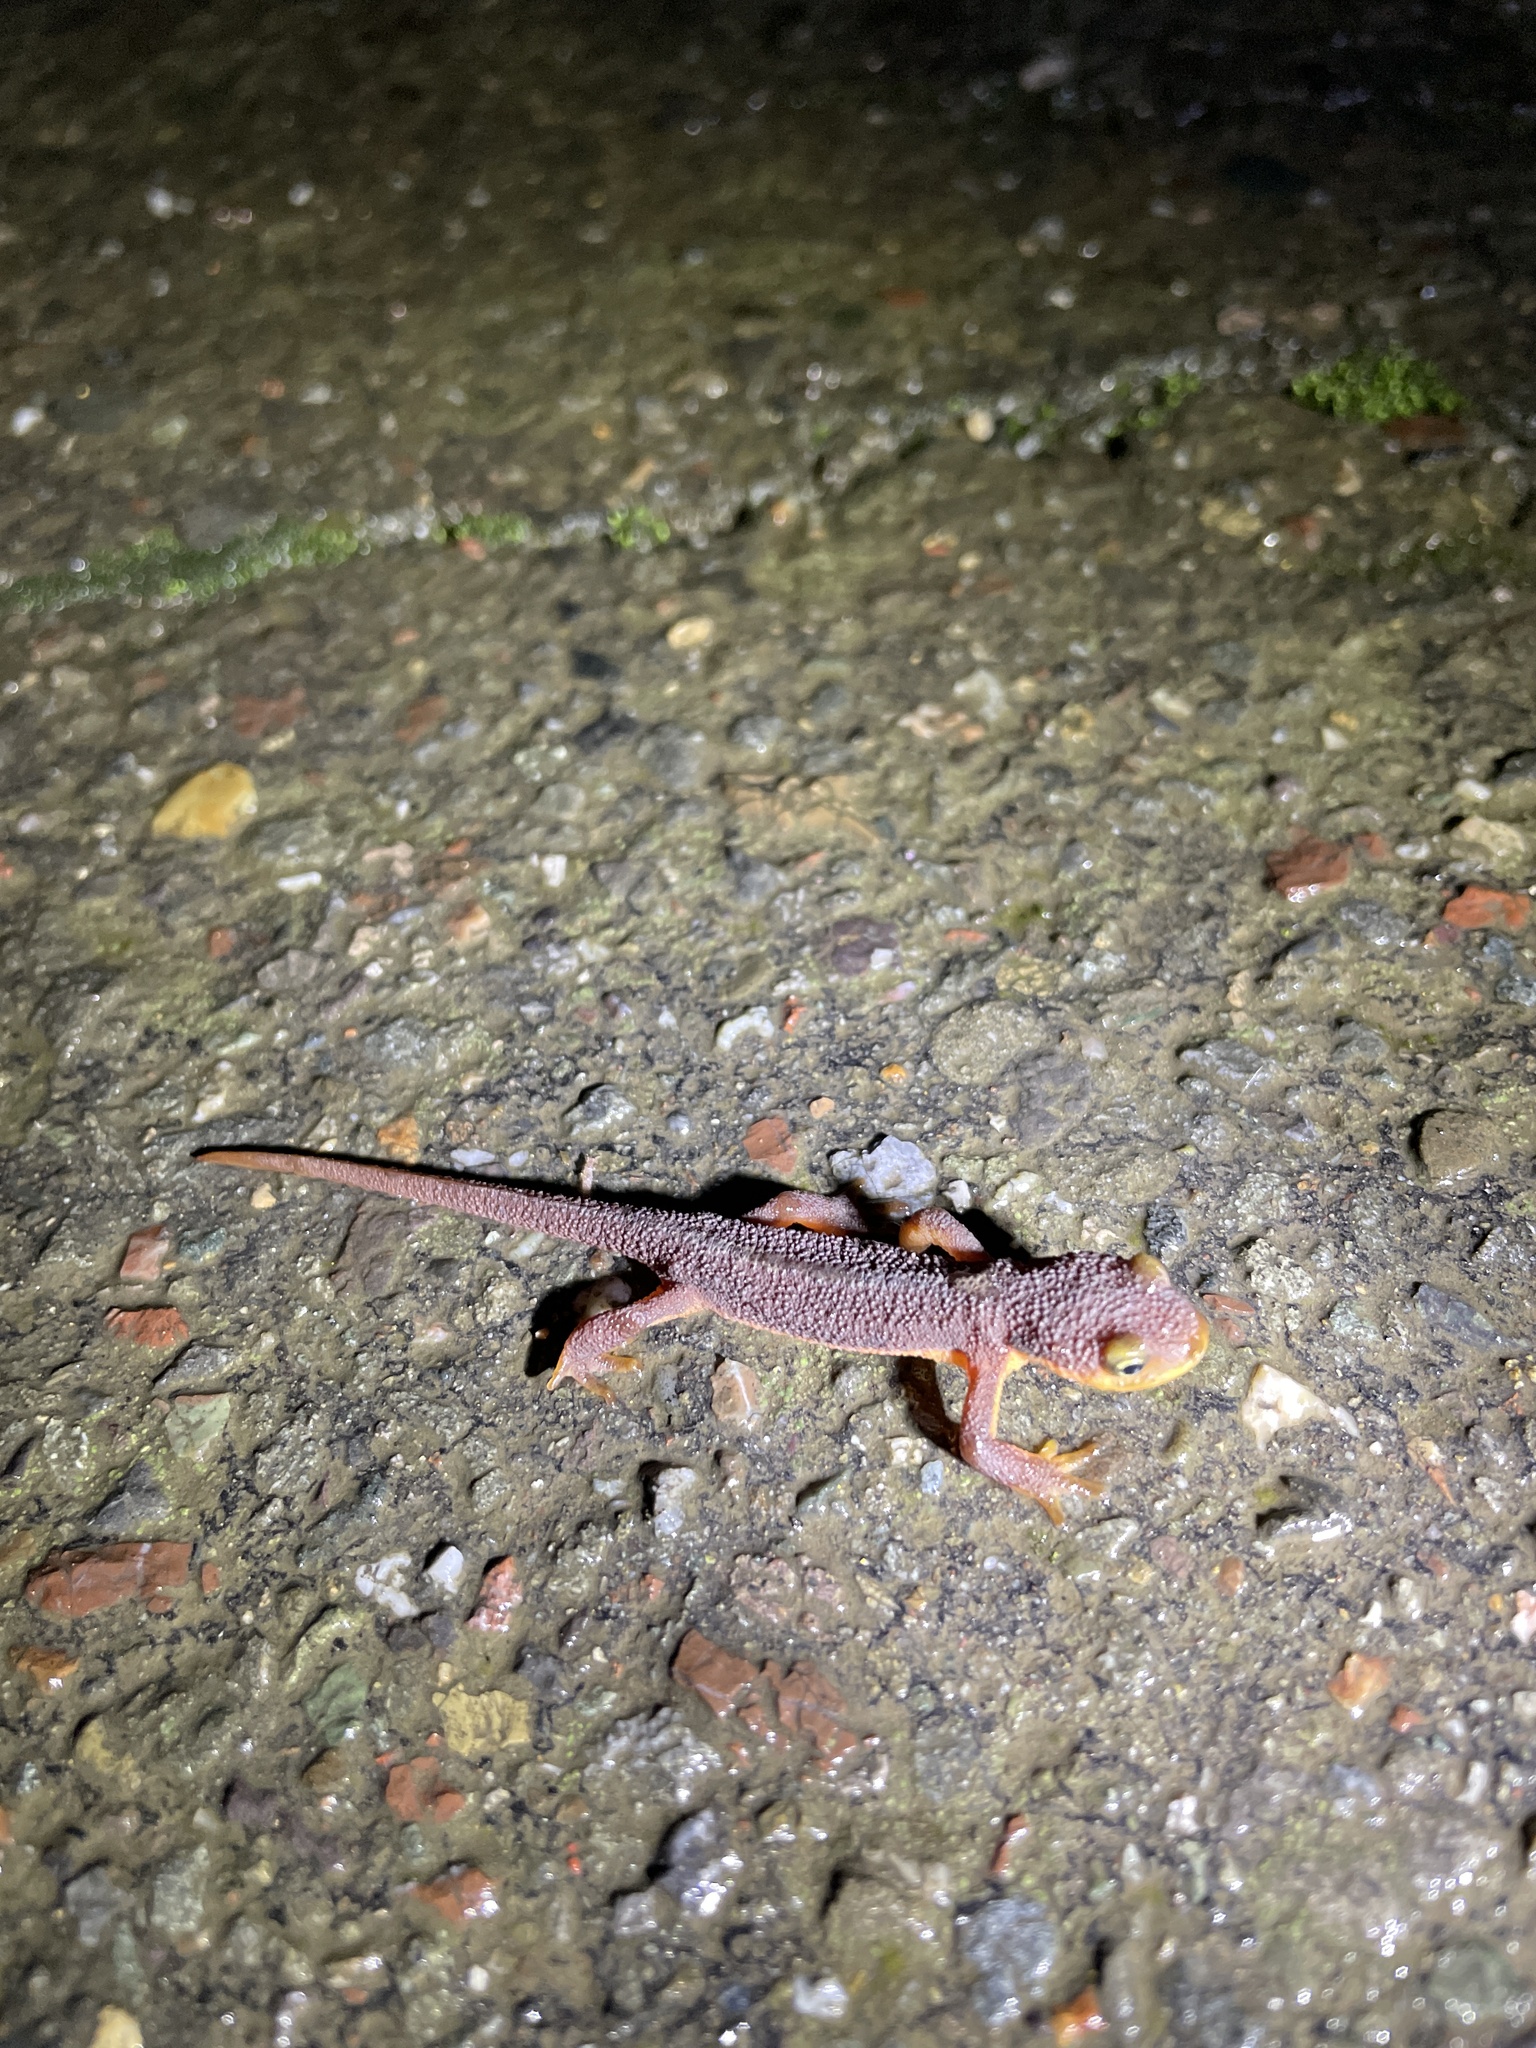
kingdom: Animalia
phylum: Chordata
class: Amphibia
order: Caudata
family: Salamandridae
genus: Taricha
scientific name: Taricha torosa
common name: California newt
